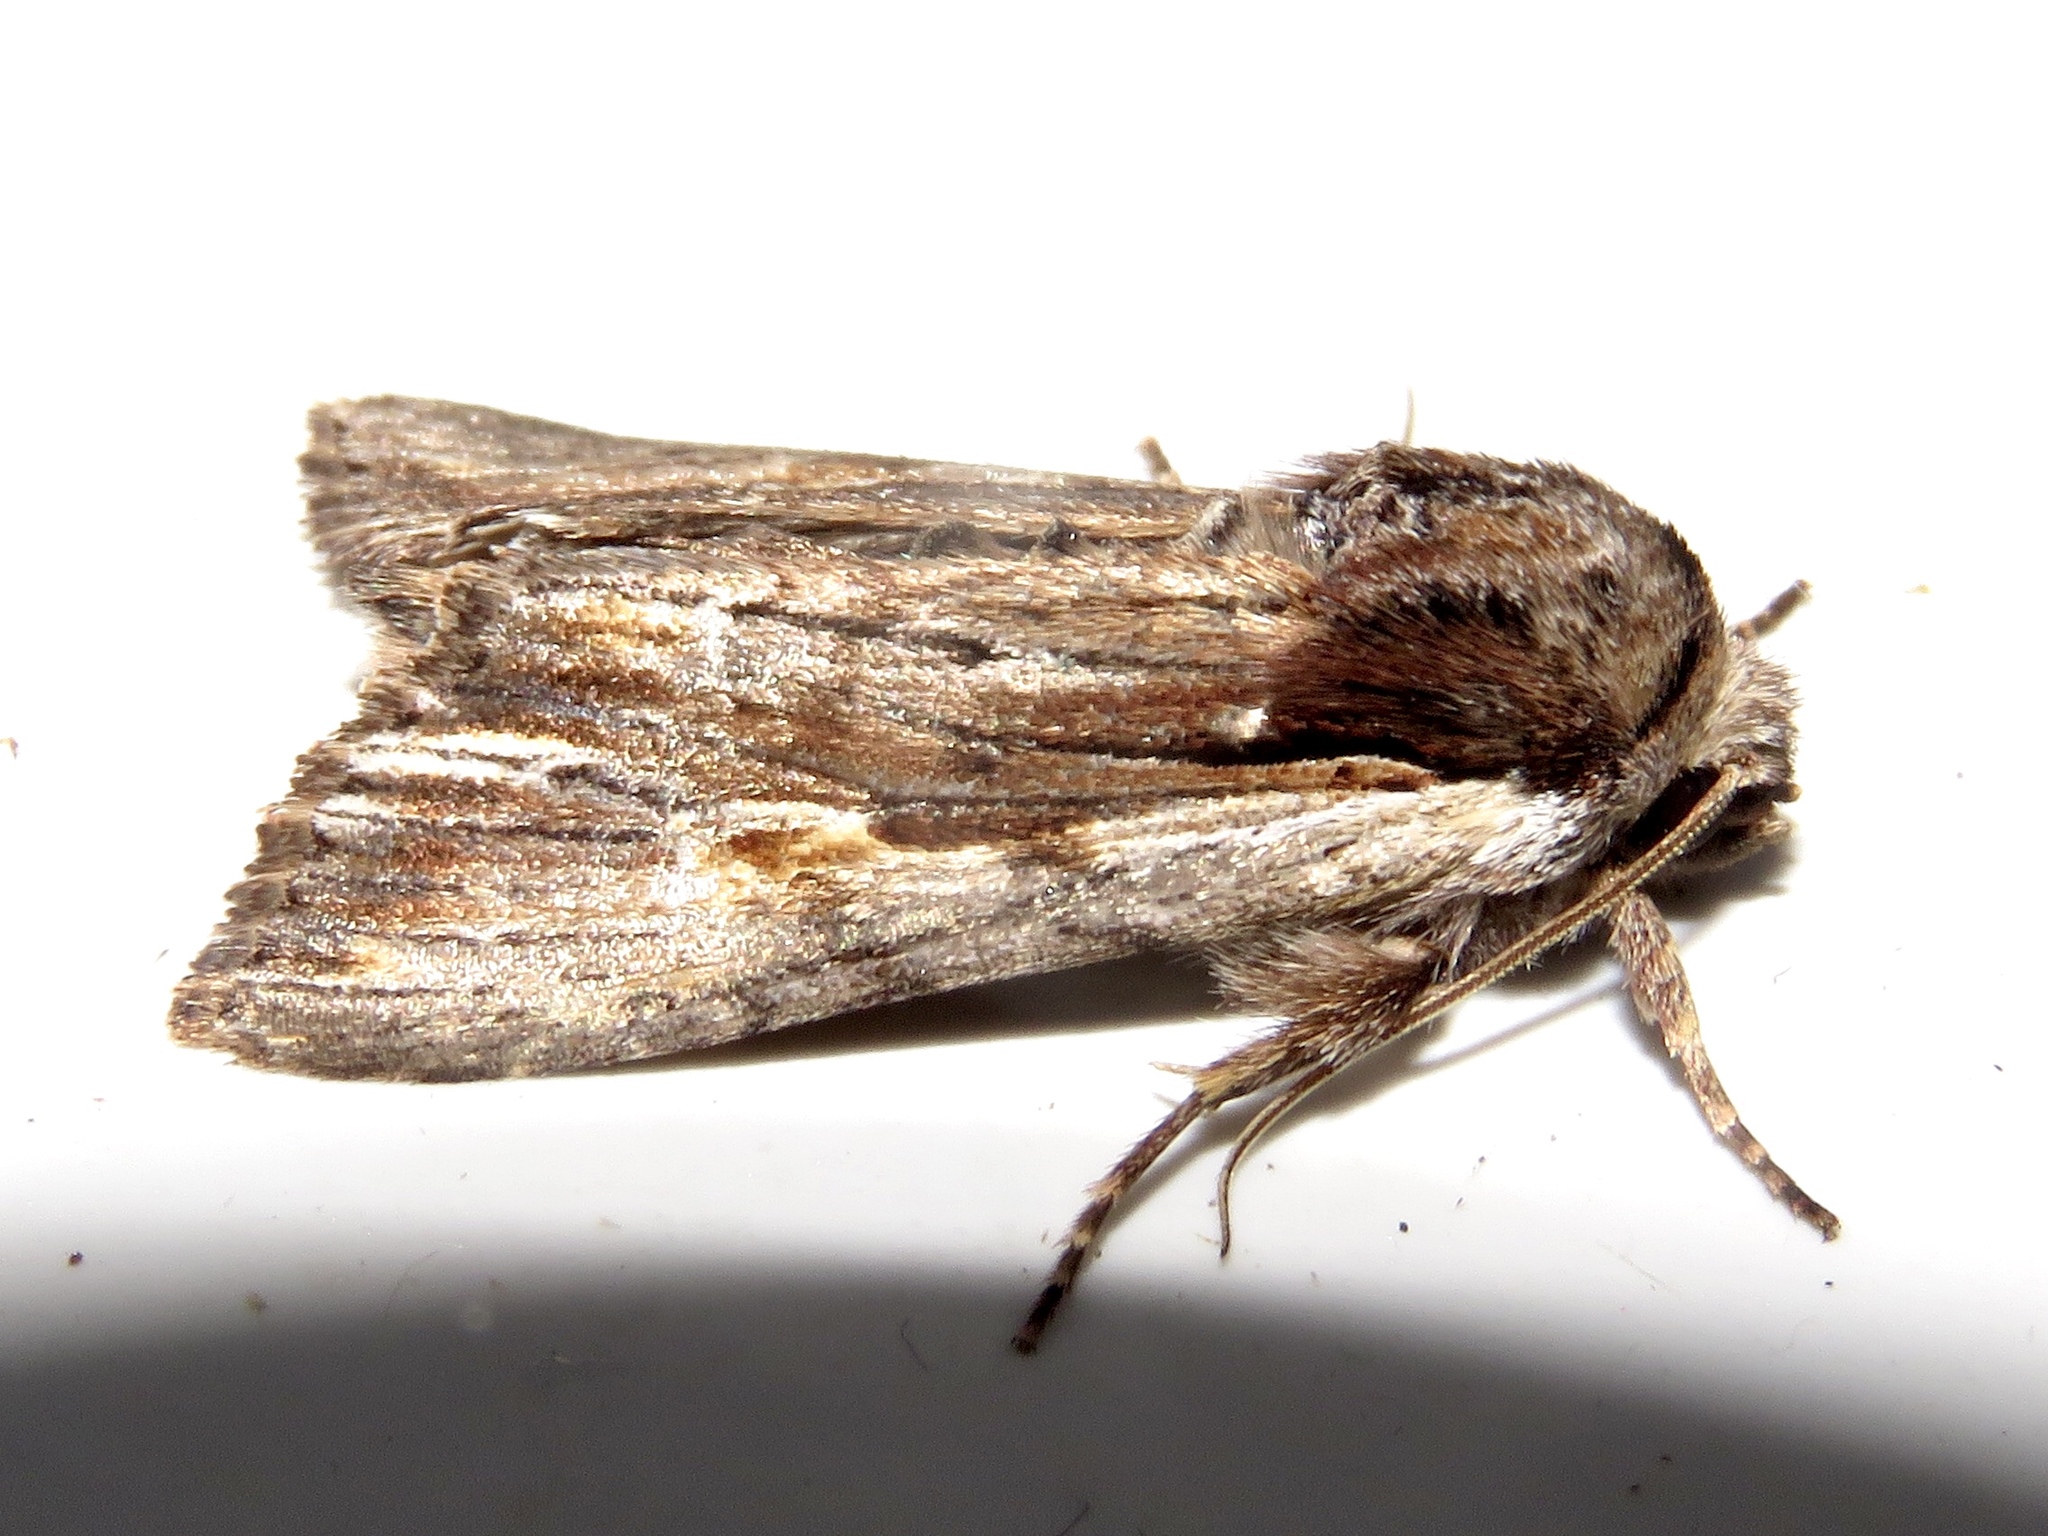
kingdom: Animalia
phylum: Arthropoda
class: Insecta
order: Lepidoptera
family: Noctuidae
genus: Achatia
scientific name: Achatia evicta
